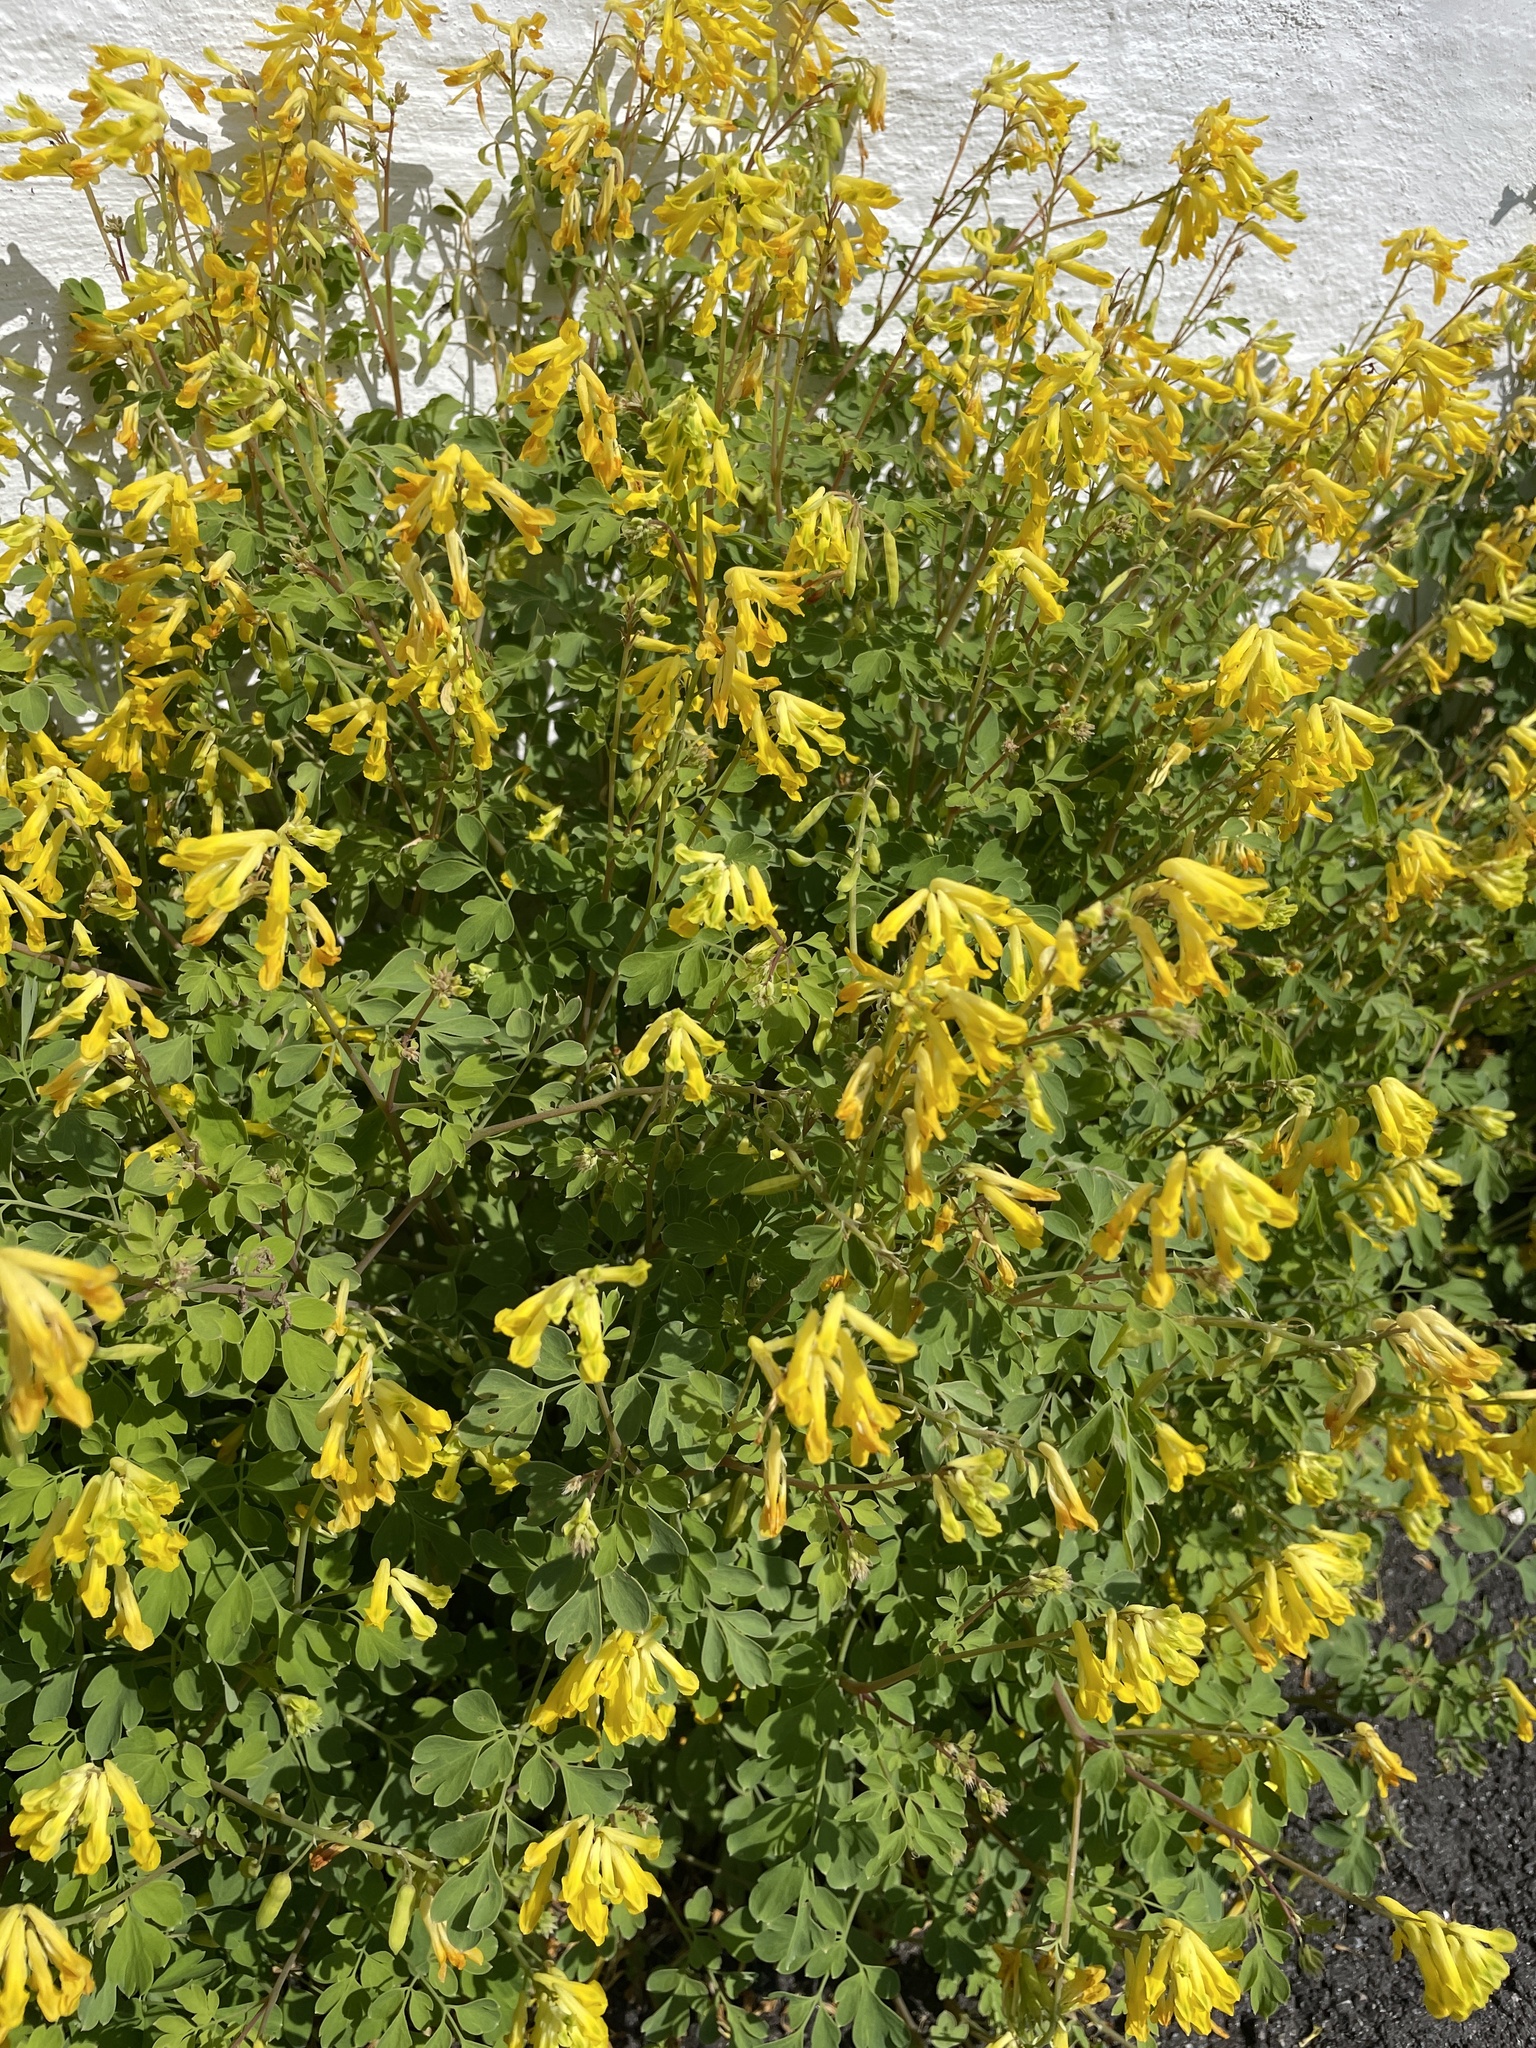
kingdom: Plantae
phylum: Tracheophyta
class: Magnoliopsida
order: Ranunculales
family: Papaveraceae
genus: Pseudofumaria
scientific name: Pseudofumaria lutea
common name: Yellow corydalis
